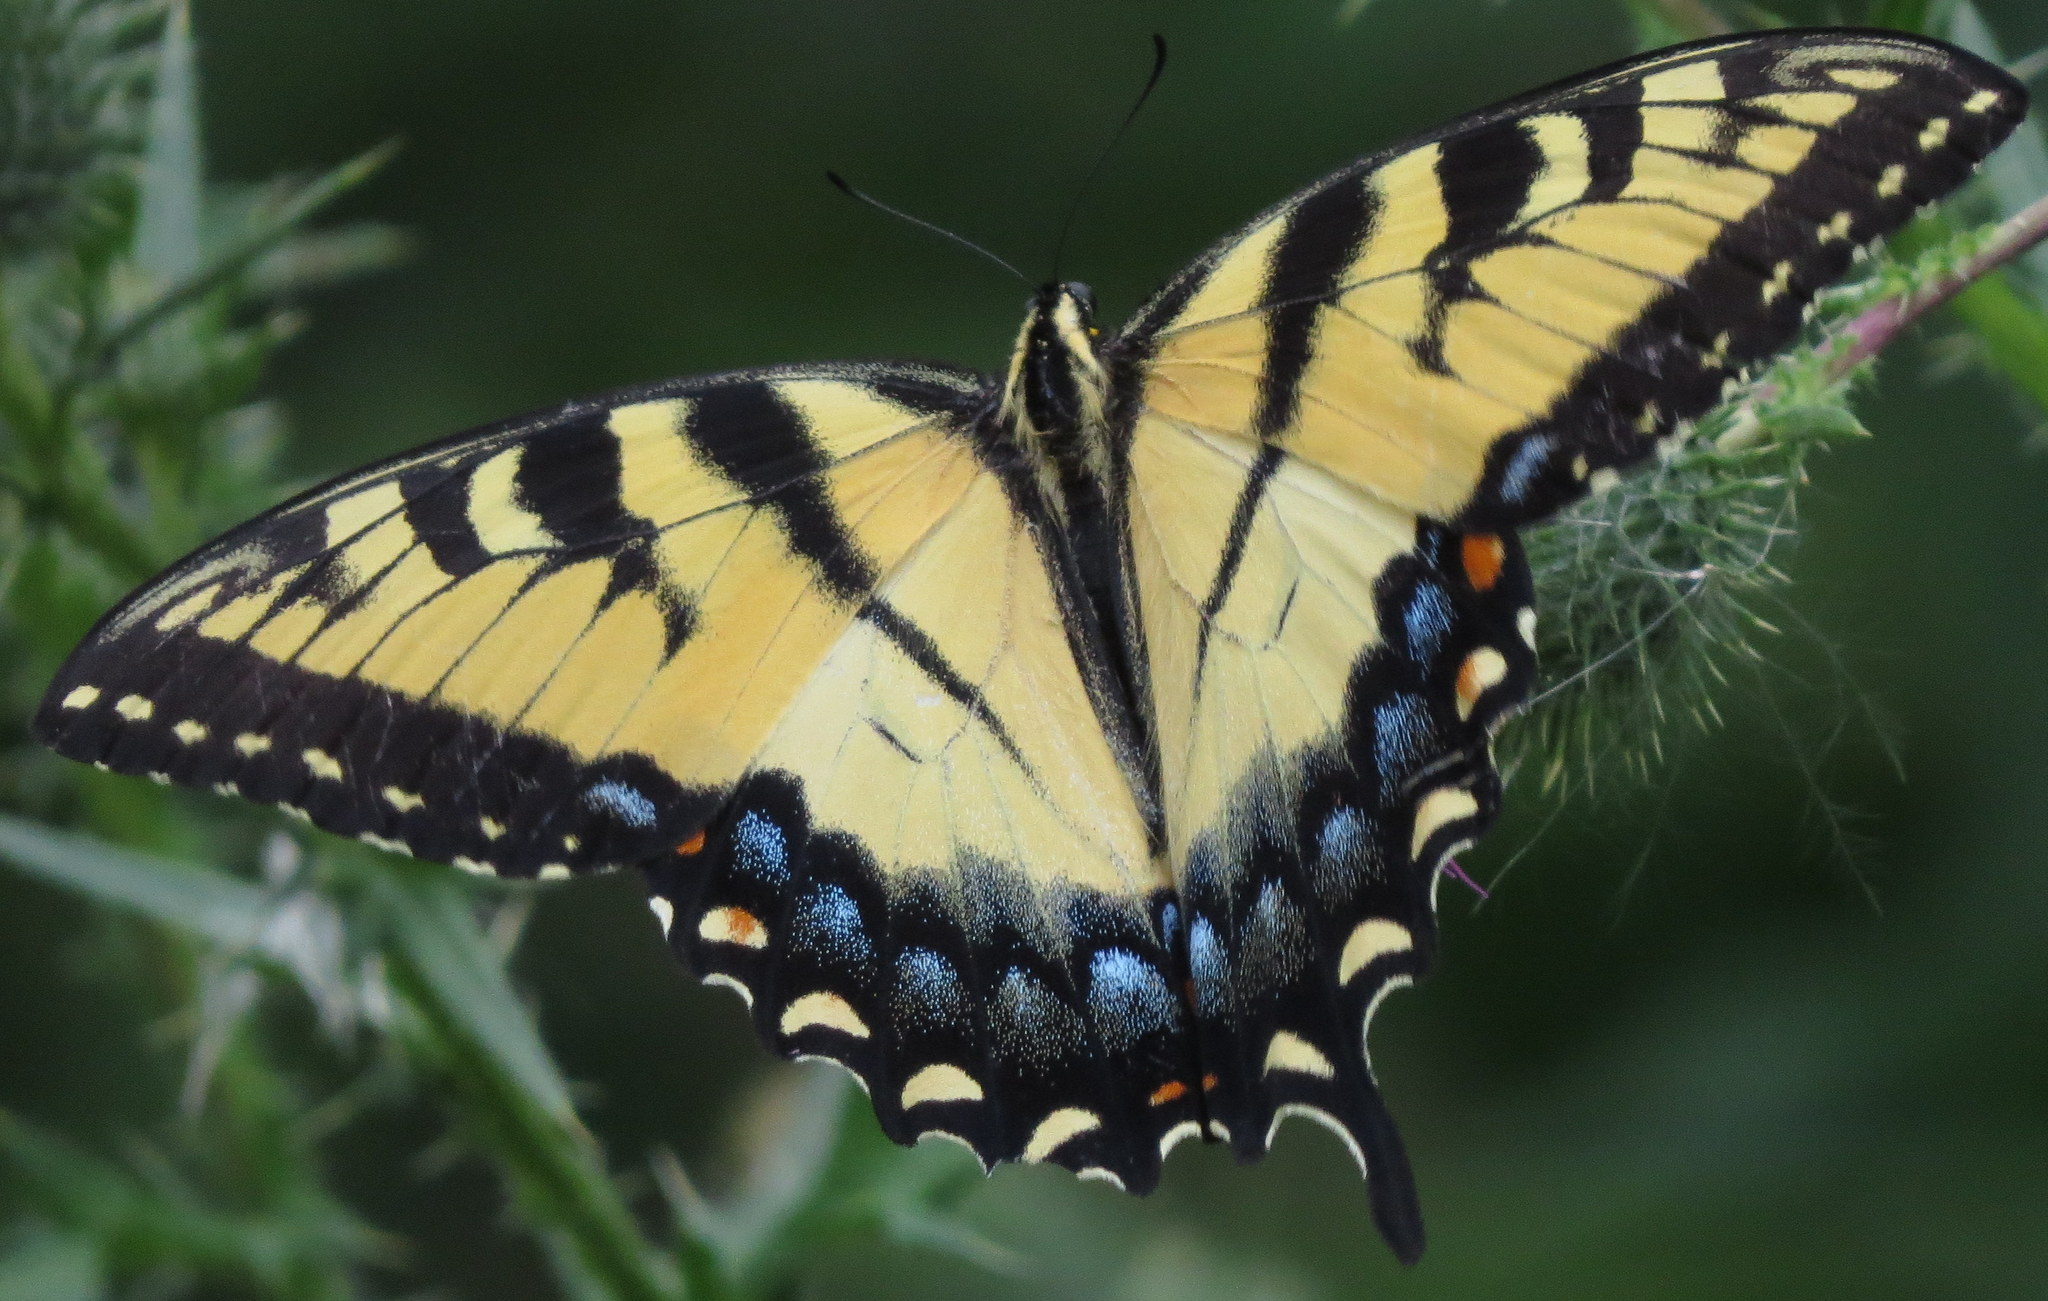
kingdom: Animalia
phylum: Arthropoda
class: Insecta
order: Lepidoptera
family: Papilionidae
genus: Papilio
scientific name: Papilio glaucus
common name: Tiger swallowtail
